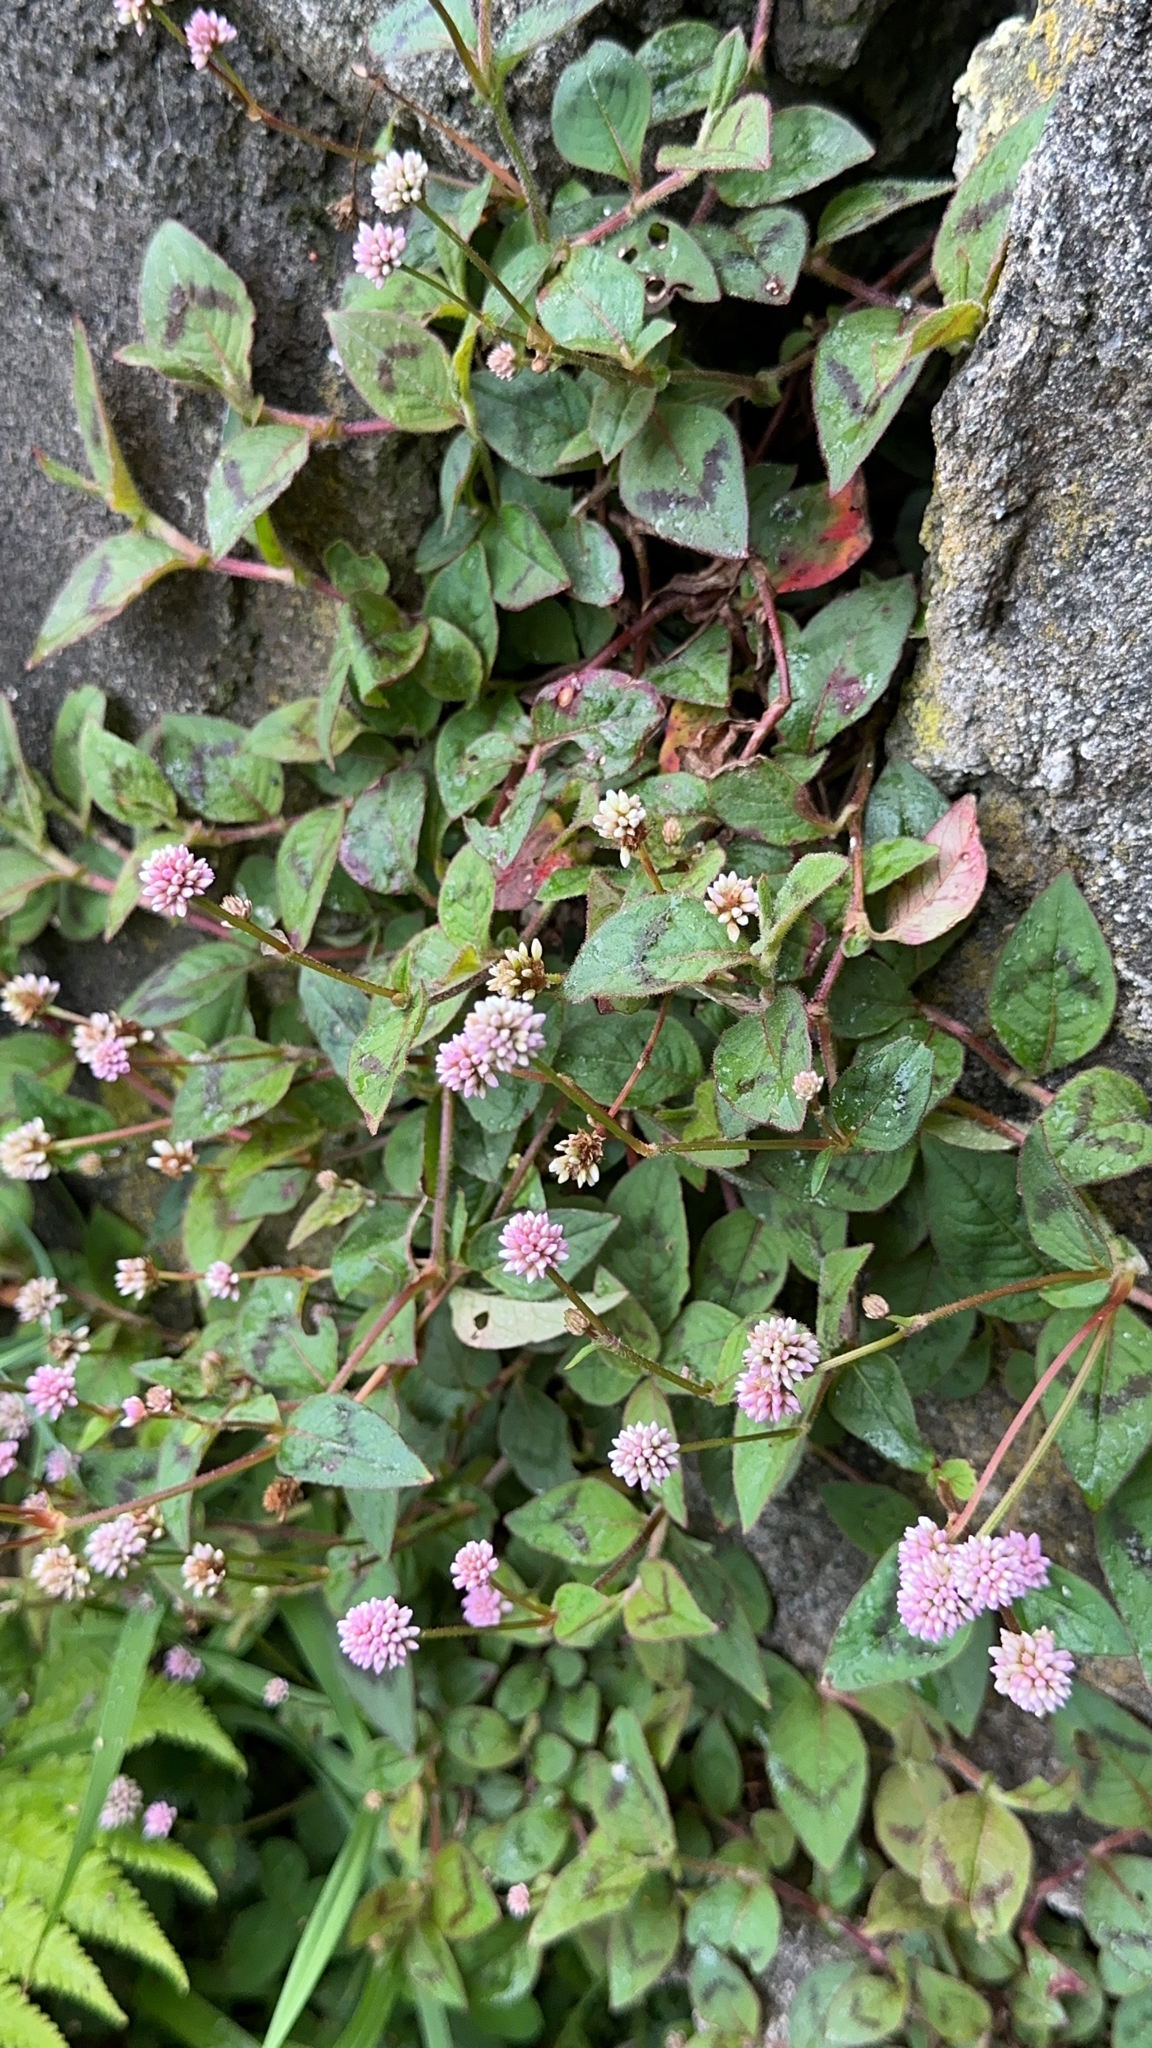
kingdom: Plantae
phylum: Tracheophyta
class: Magnoliopsida
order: Caryophyllales
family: Polygonaceae
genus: Persicaria
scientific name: Persicaria capitata
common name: Pinkhead smartweed
